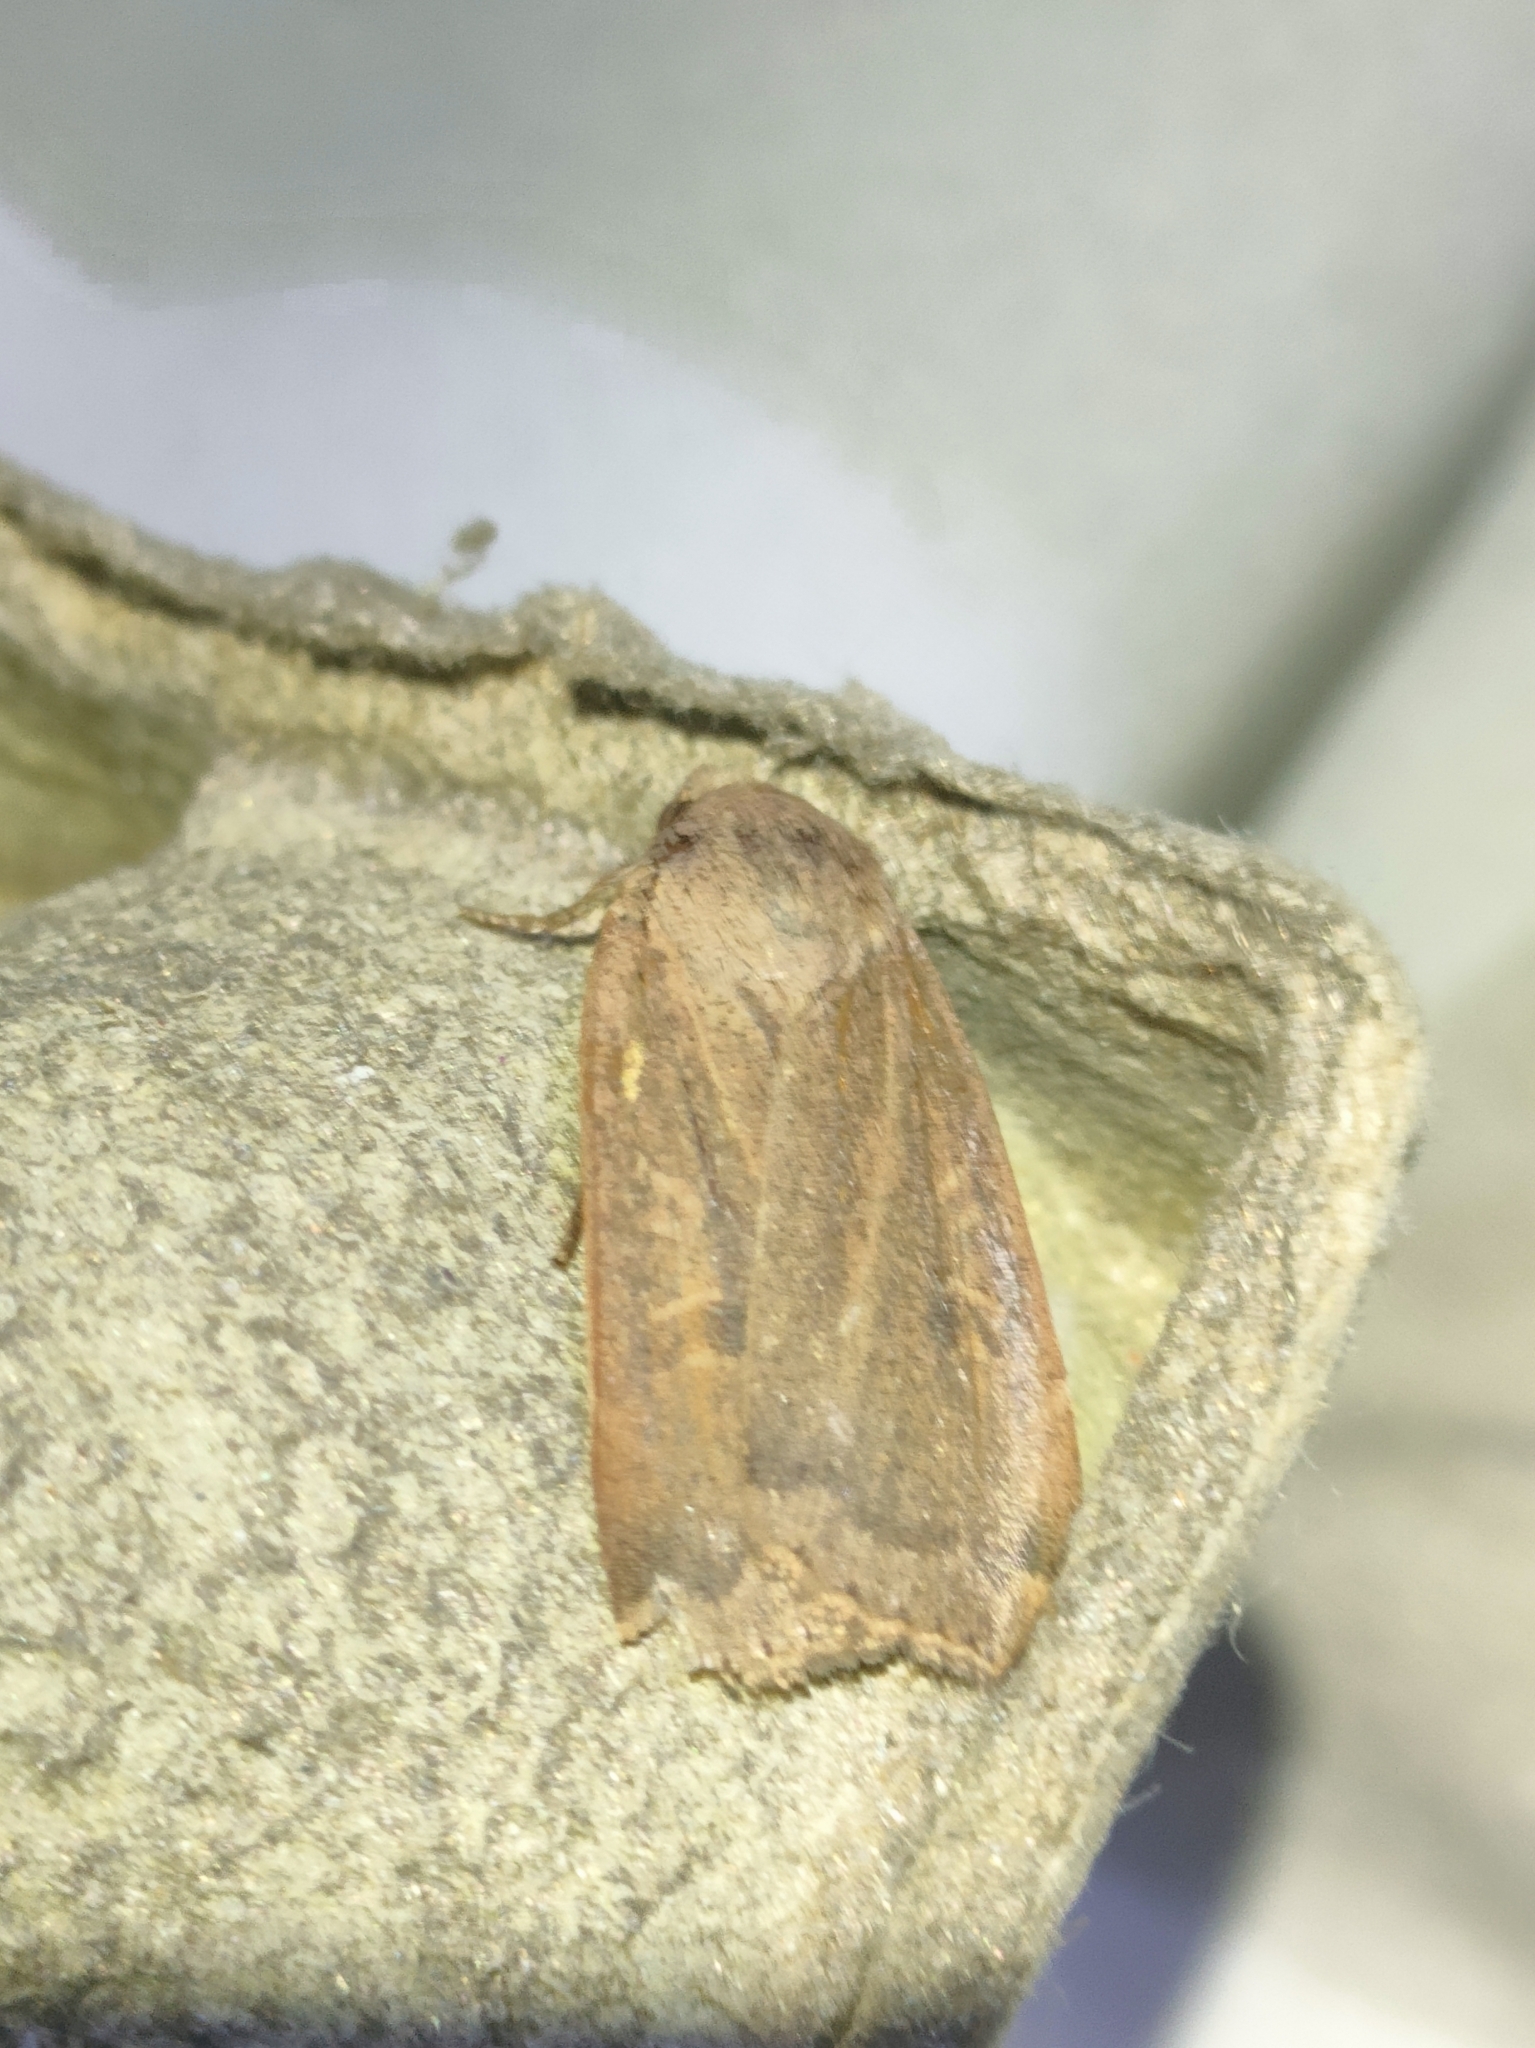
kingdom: Animalia
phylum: Arthropoda
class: Insecta
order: Lepidoptera
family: Noctuidae
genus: Noctua
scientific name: Noctua comes
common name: Lesser yellow underwing
